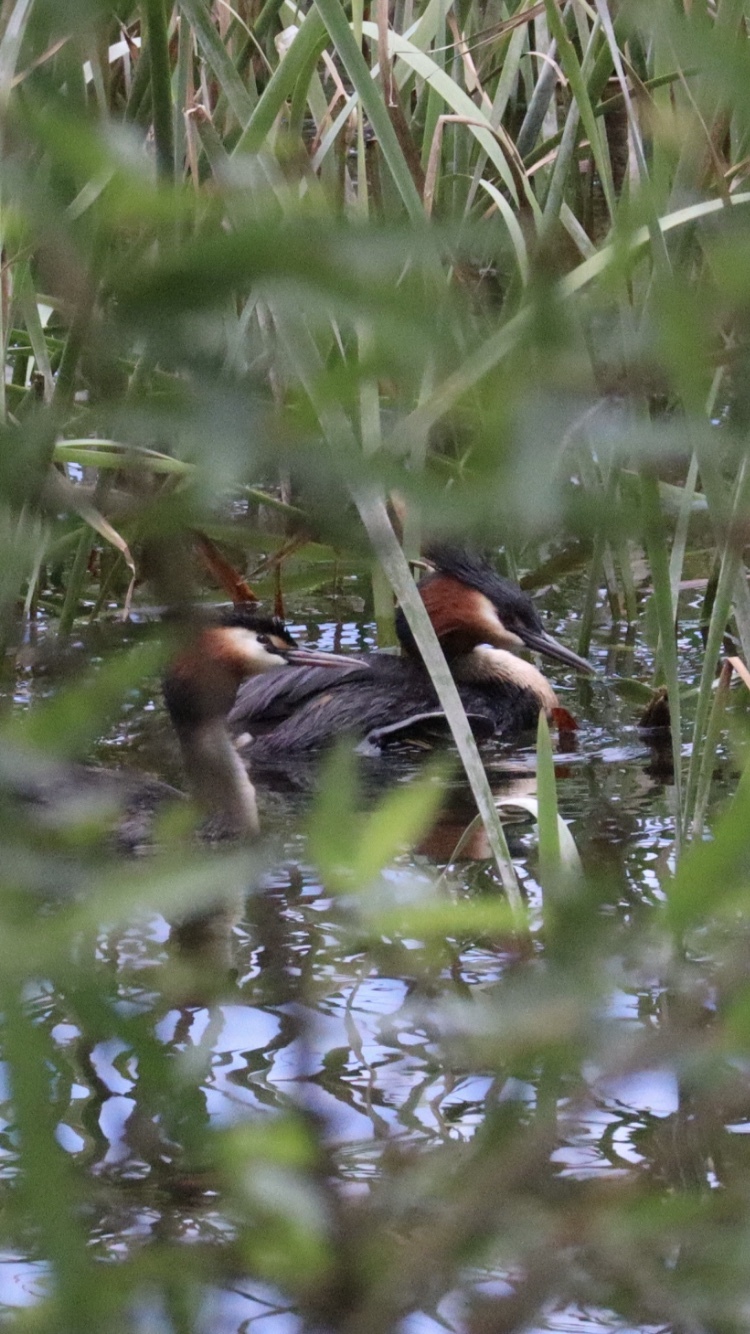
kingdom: Animalia
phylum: Chordata
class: Aves
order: Podicipediformes
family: Podicipedidae
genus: Podiceps
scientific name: Podiceps cristatus
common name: Great crested grebe
